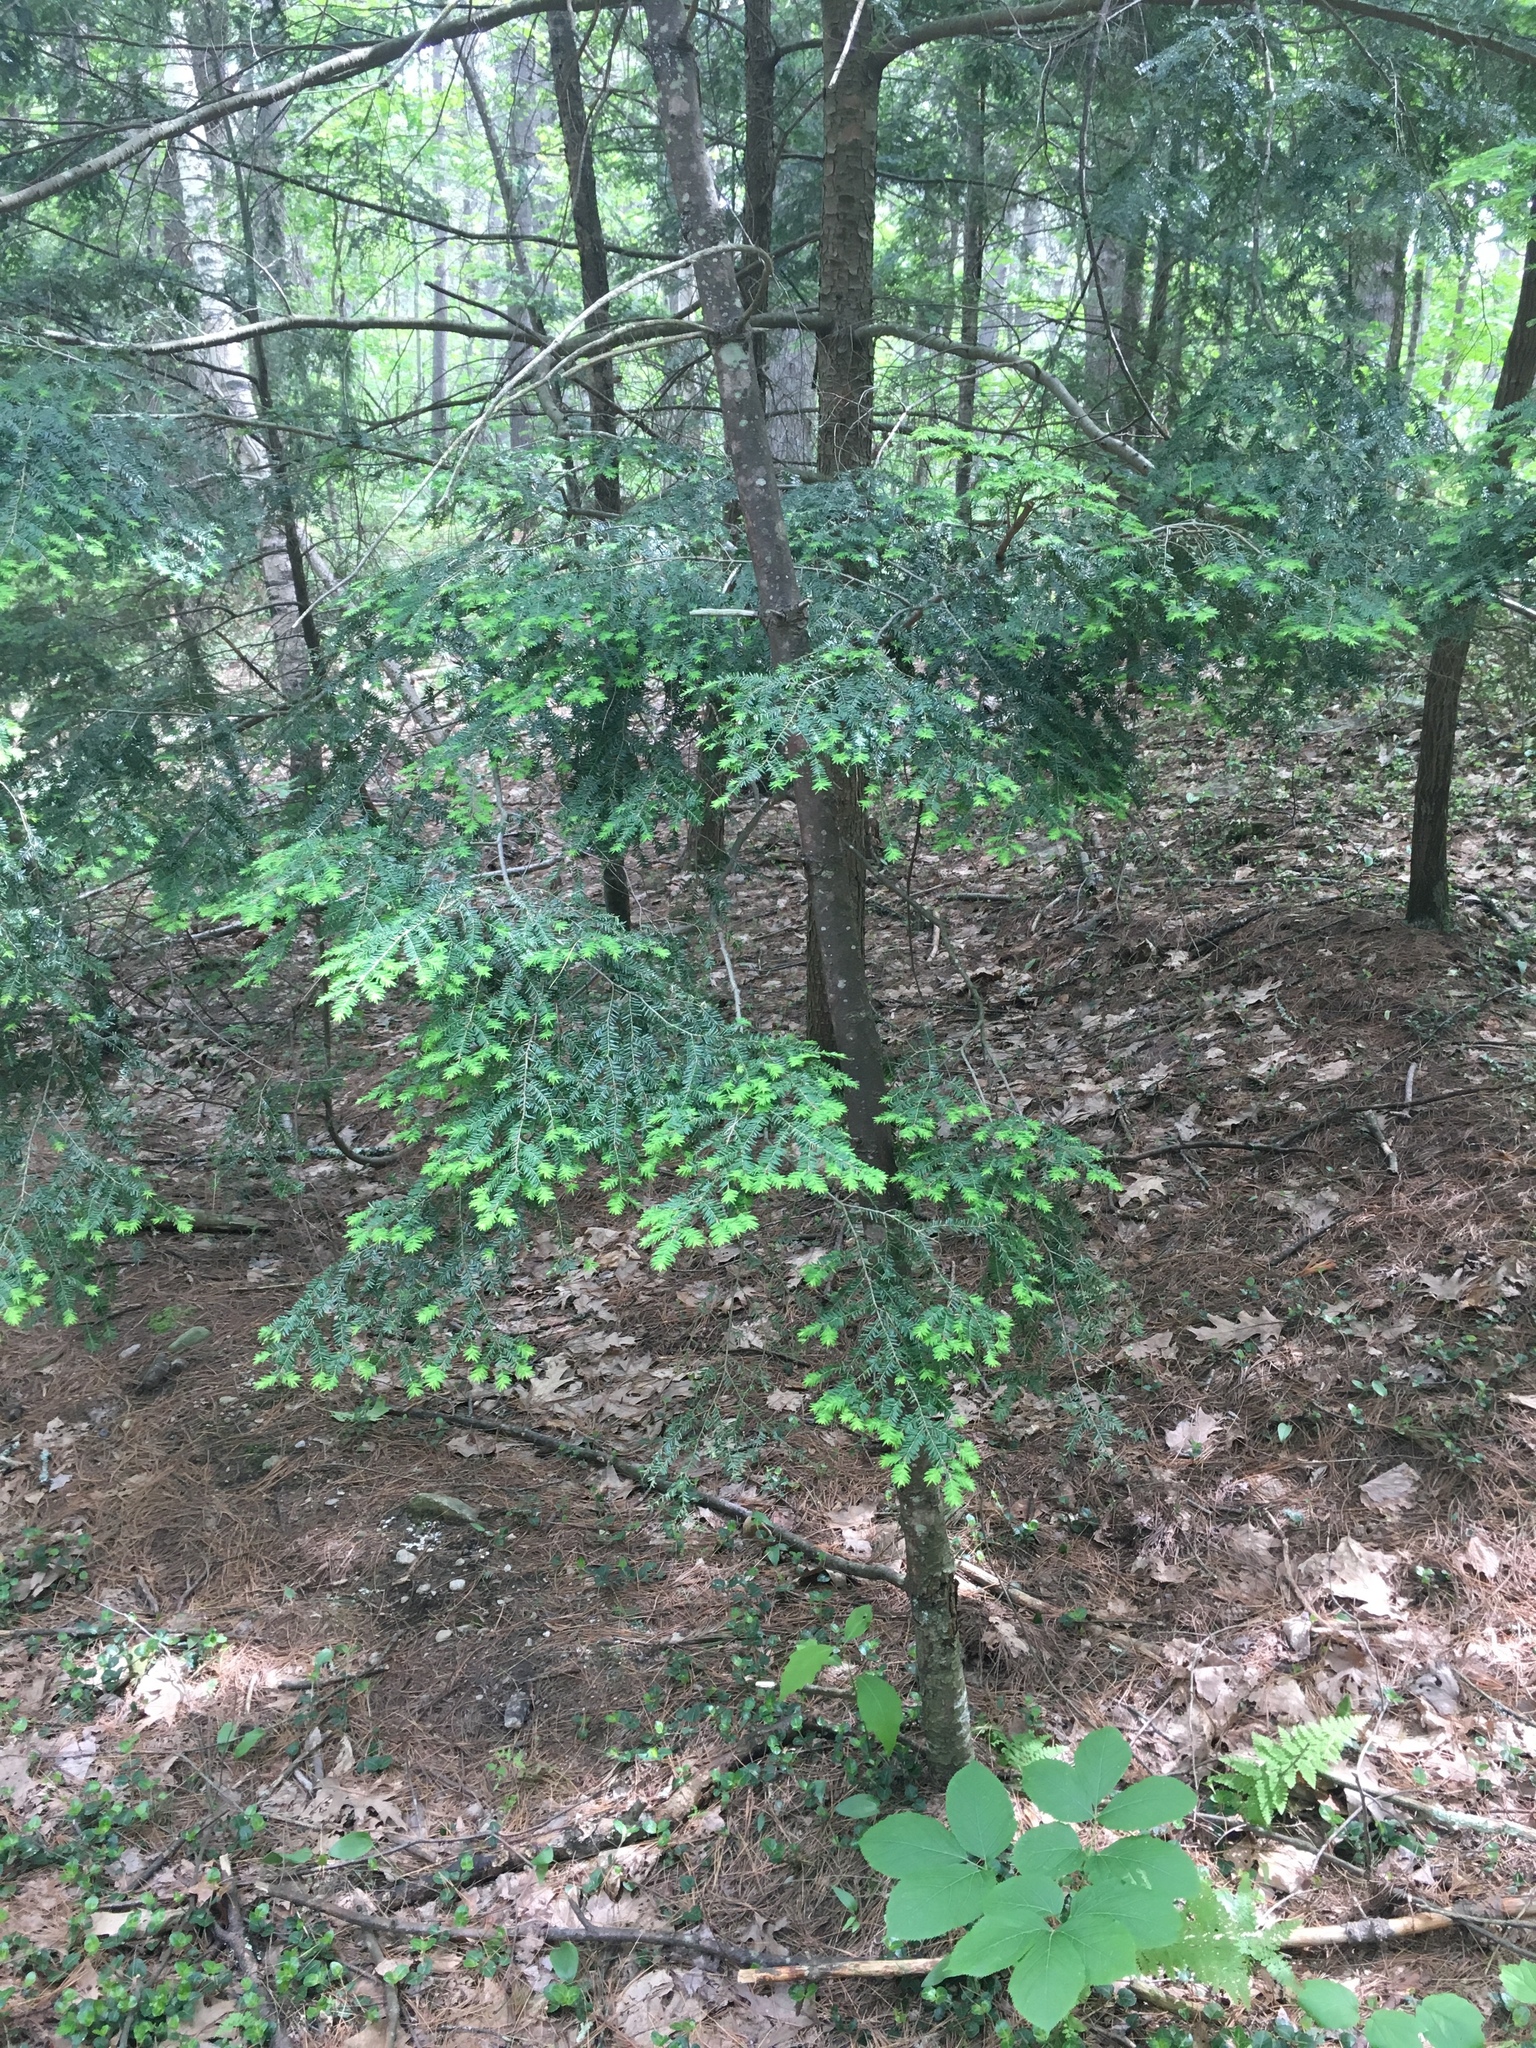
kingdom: Plantae
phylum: Tracheophyta
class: Pinopsida
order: Pinales
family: Pinaceae
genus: Tsuga
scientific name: Tsuga canadensis
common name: Eastern hemlock
